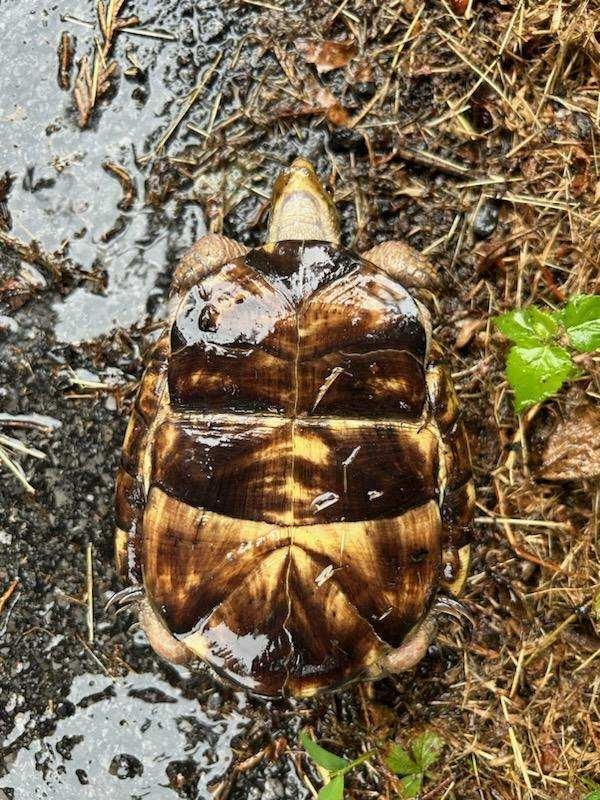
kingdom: Animalia
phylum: Chordata
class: Testudines
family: Emydidae
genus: Terrapene
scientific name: Terrapene carolina
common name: Common box turtle
